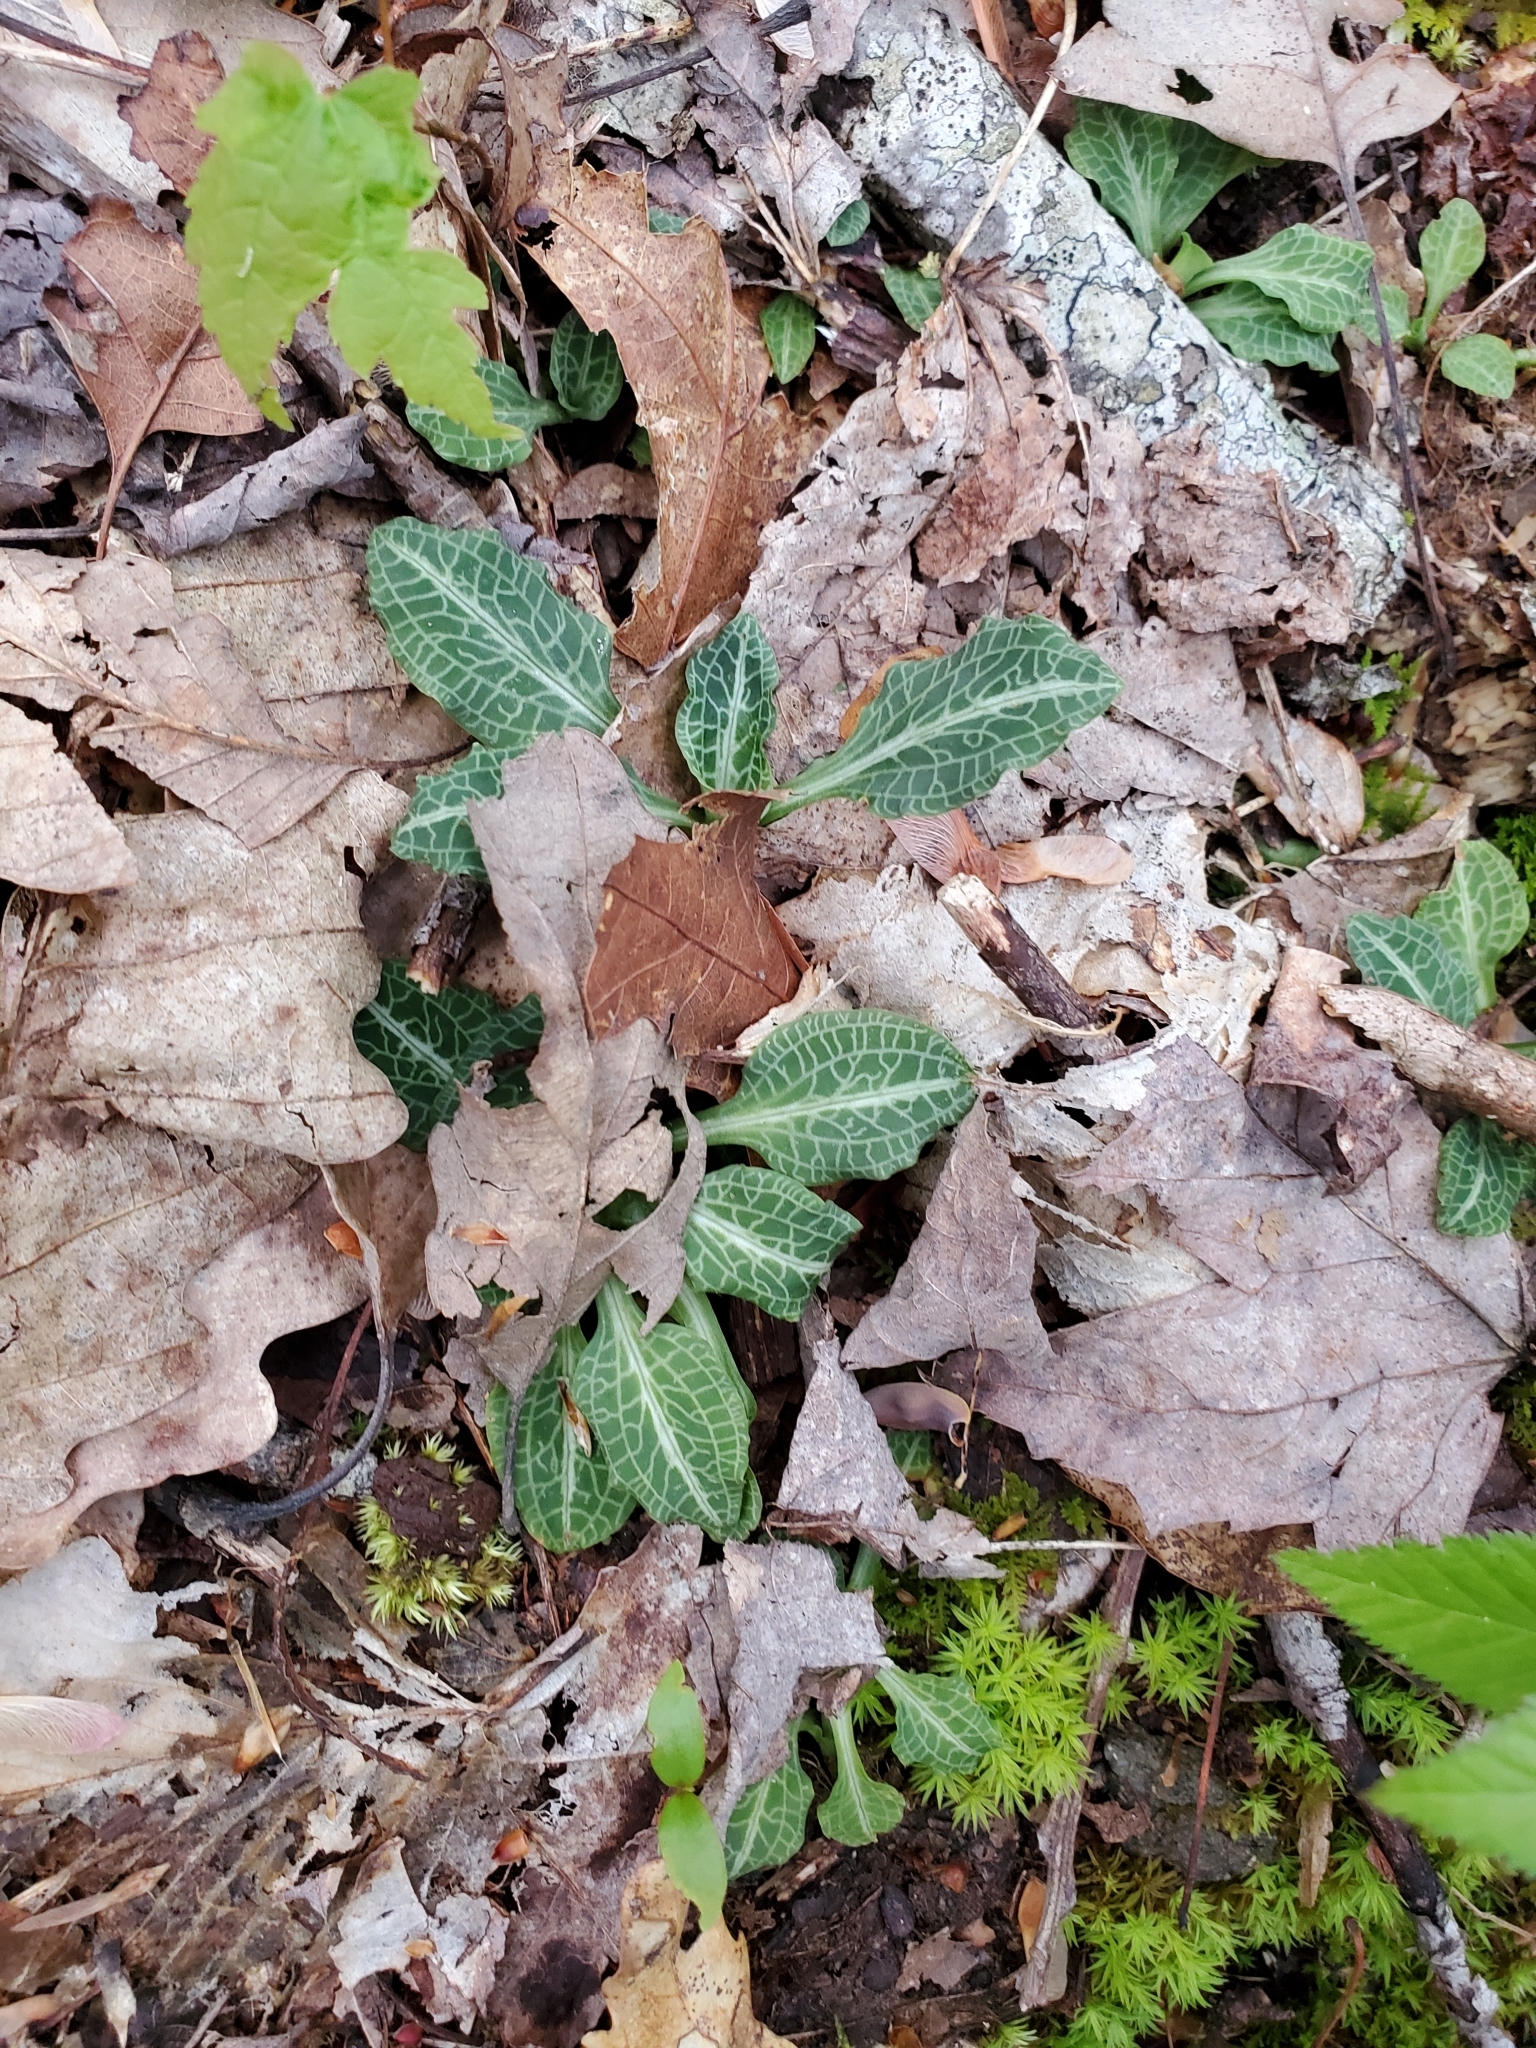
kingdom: Plantae
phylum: Tracheophyta
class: Liliopsida
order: Asparagales
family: Orchidaceae
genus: Goodyera
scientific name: Goodyera pubescens
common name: Downy rattlesnake-plantain
